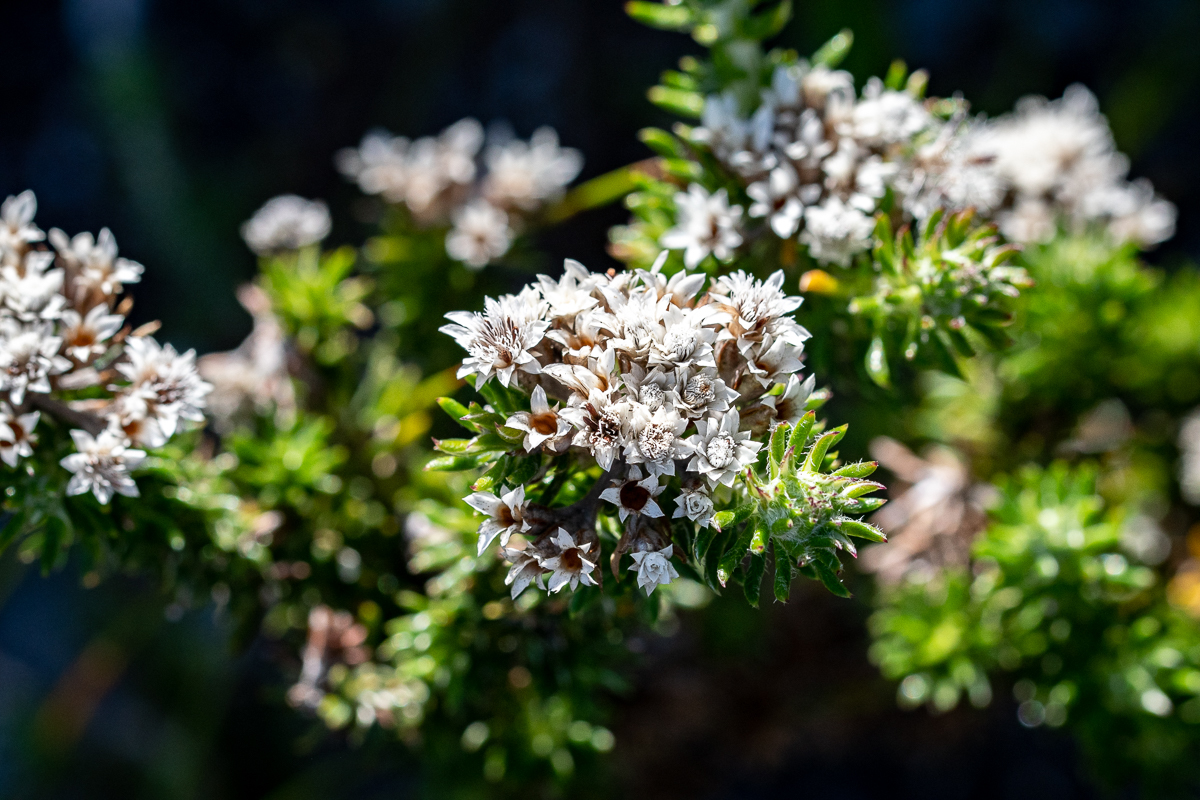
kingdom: Plantae
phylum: Tracheophyta
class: Magnoliopsida
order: Asterales
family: Asteraceae
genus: Metalasia
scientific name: Metalasia lichtensteinii
